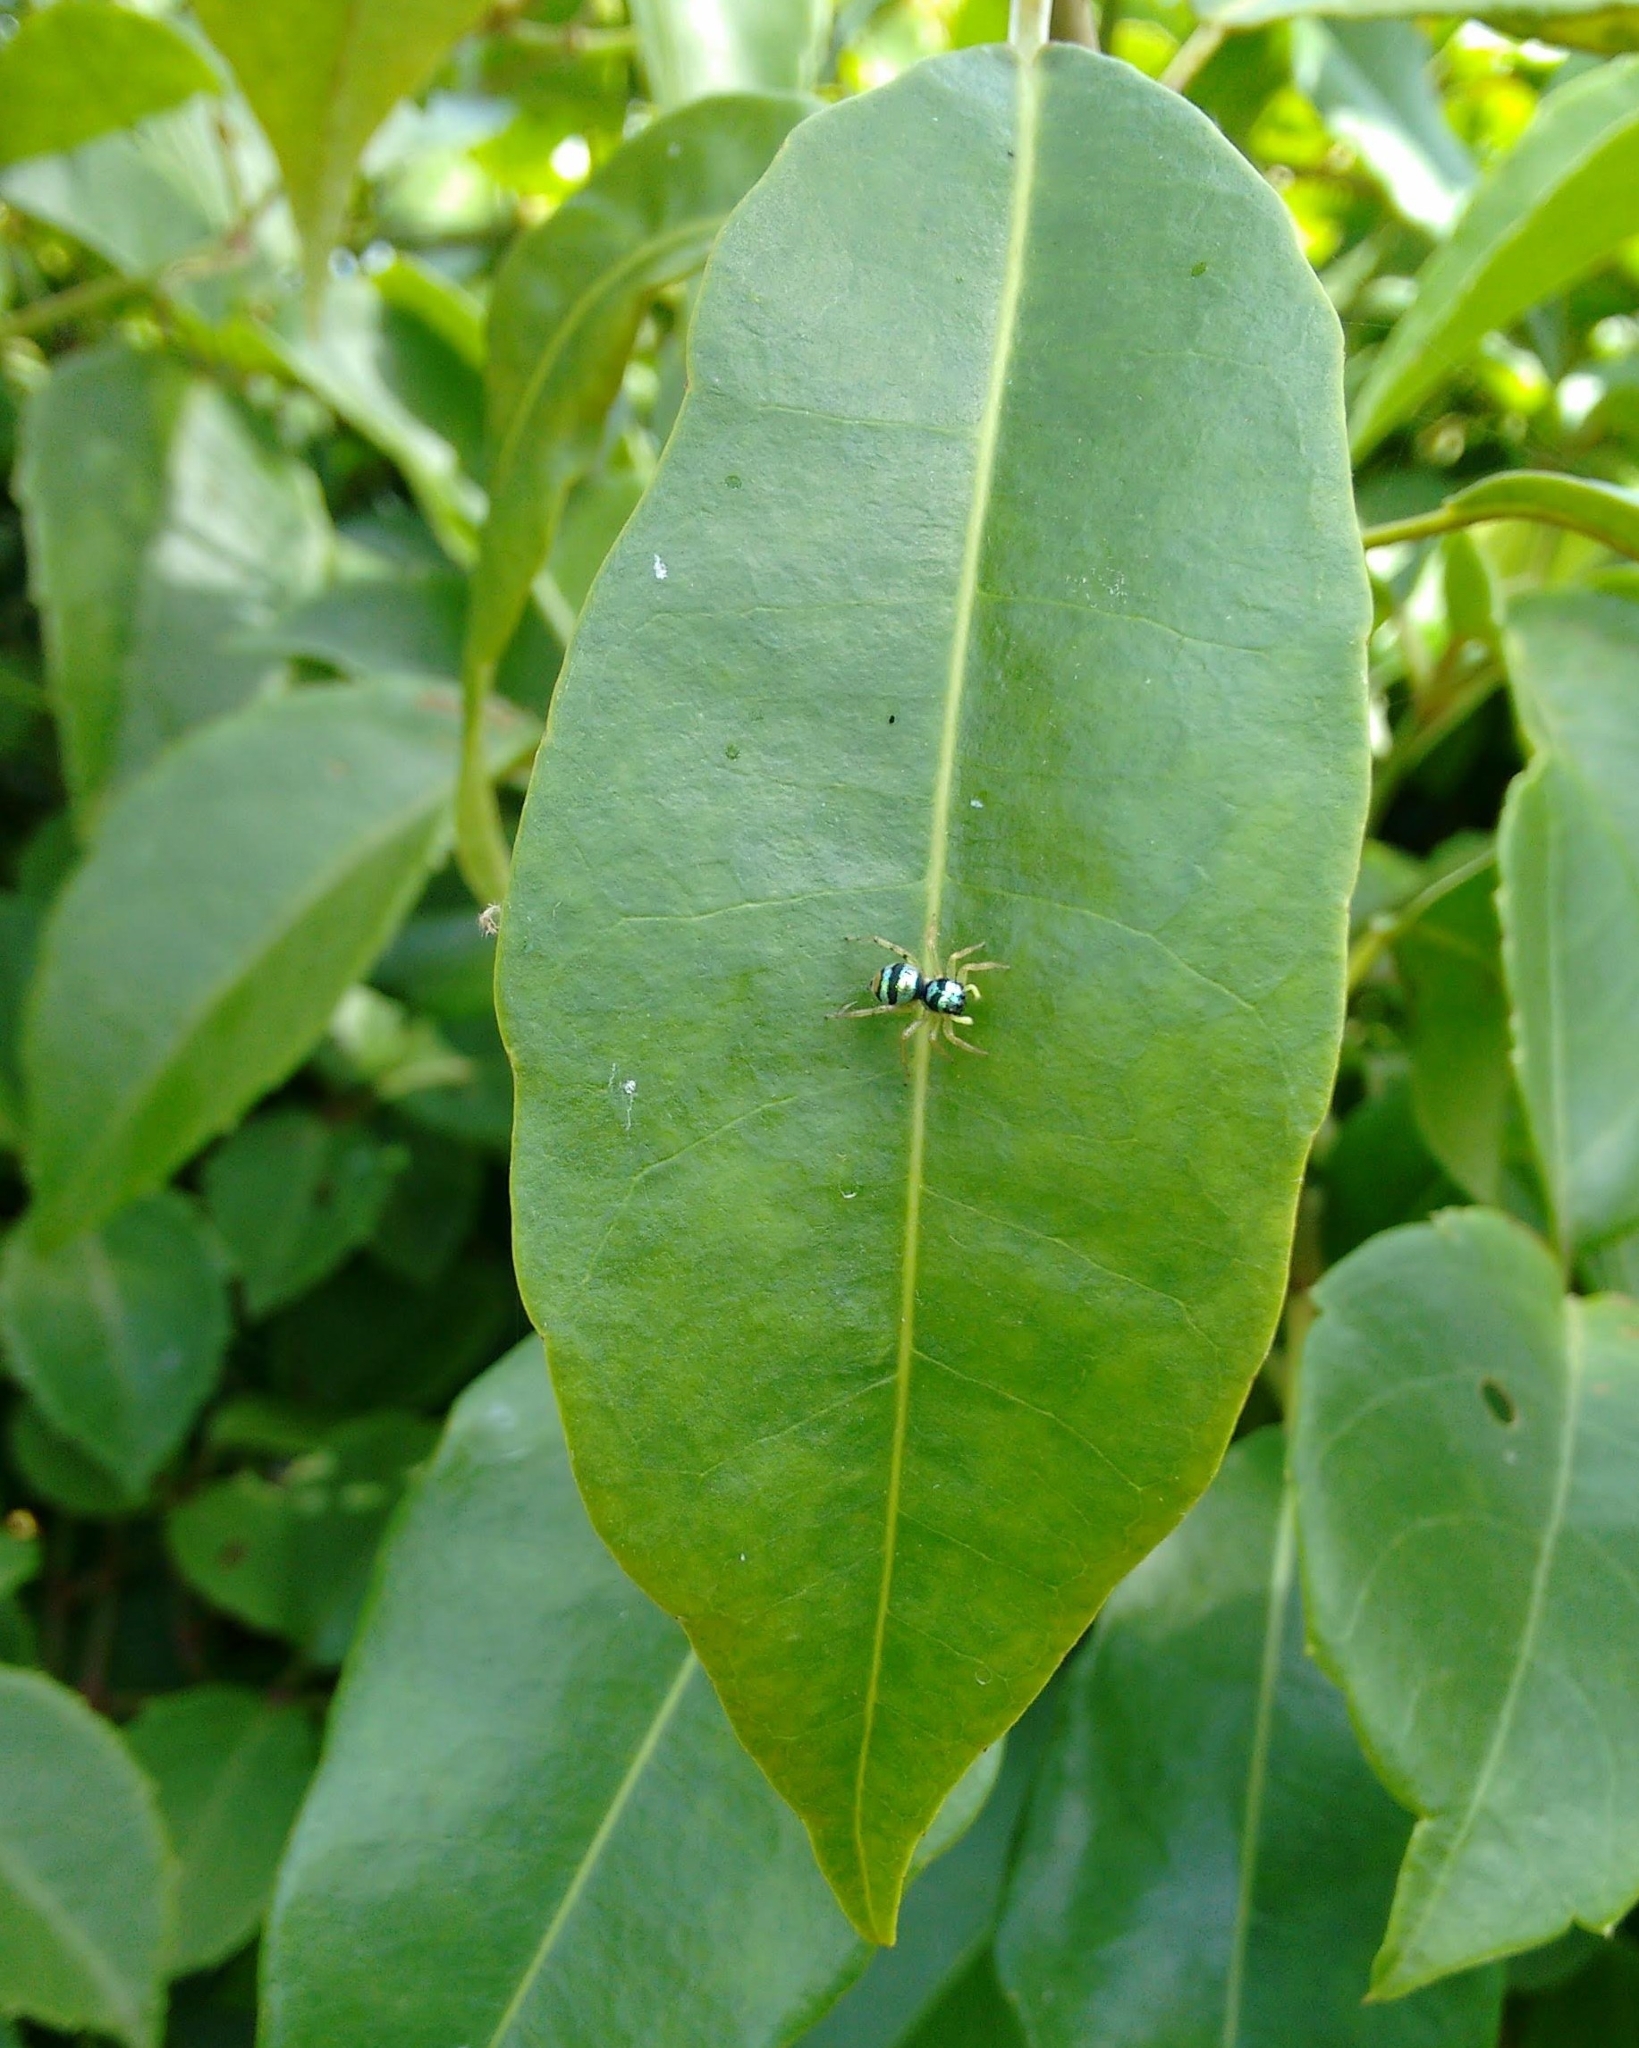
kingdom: Animalia
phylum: Arthropoda
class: Arachnida
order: Araneae
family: Salticidae
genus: Phintella
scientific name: Phintella vittata
